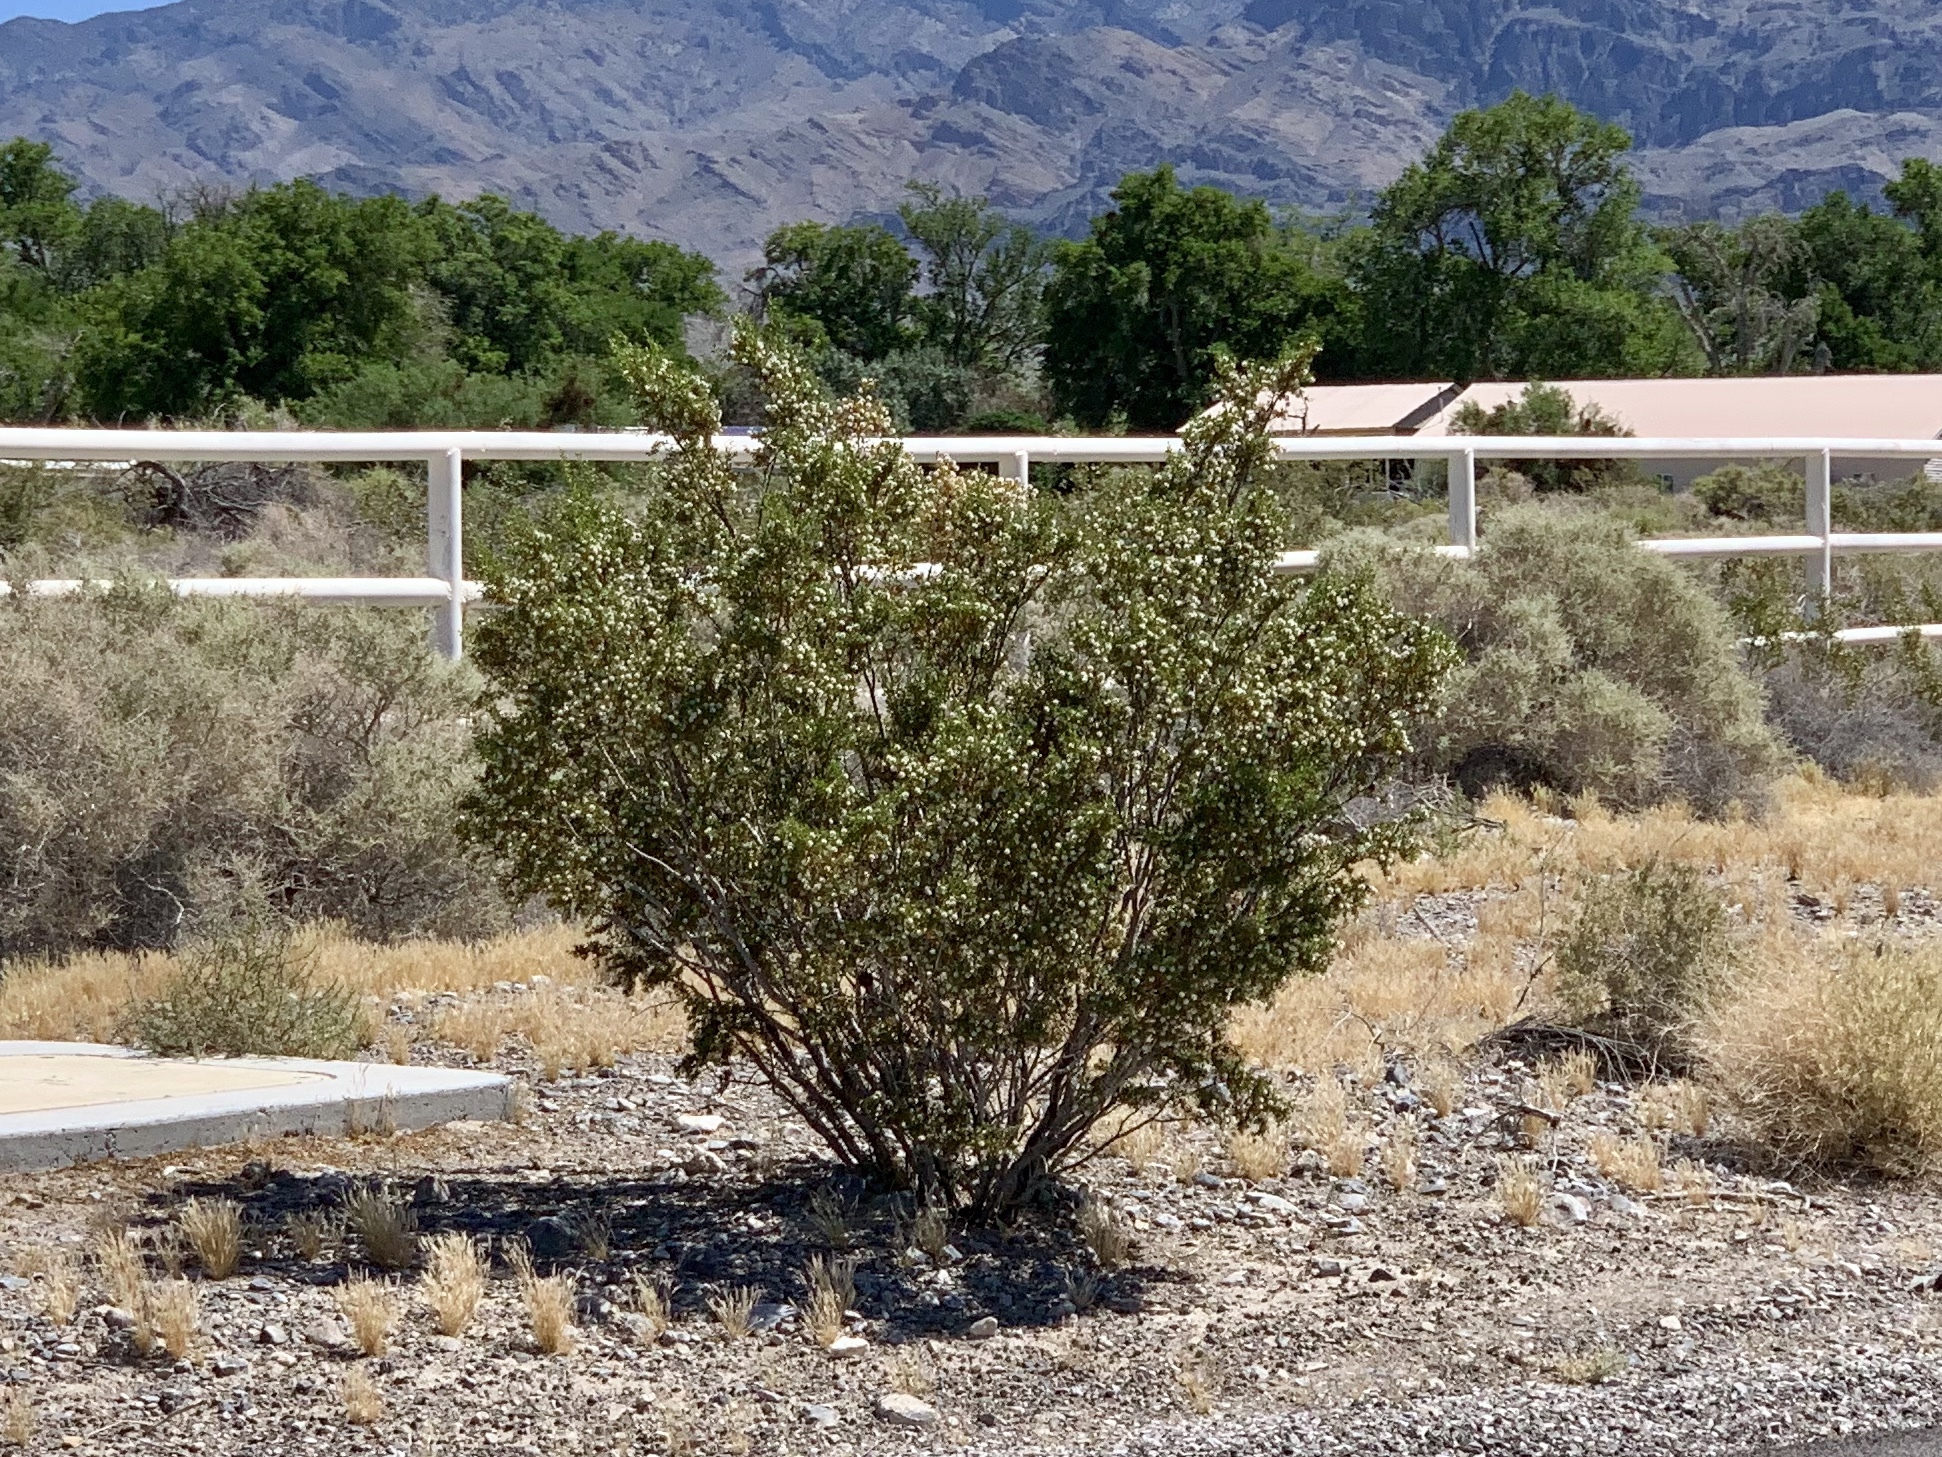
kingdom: Plantae
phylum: Tracheophyta
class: Magnoliopsida
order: Zygophyllales
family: Zygophyllaceae
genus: Larrea
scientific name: Larrea tridentata
